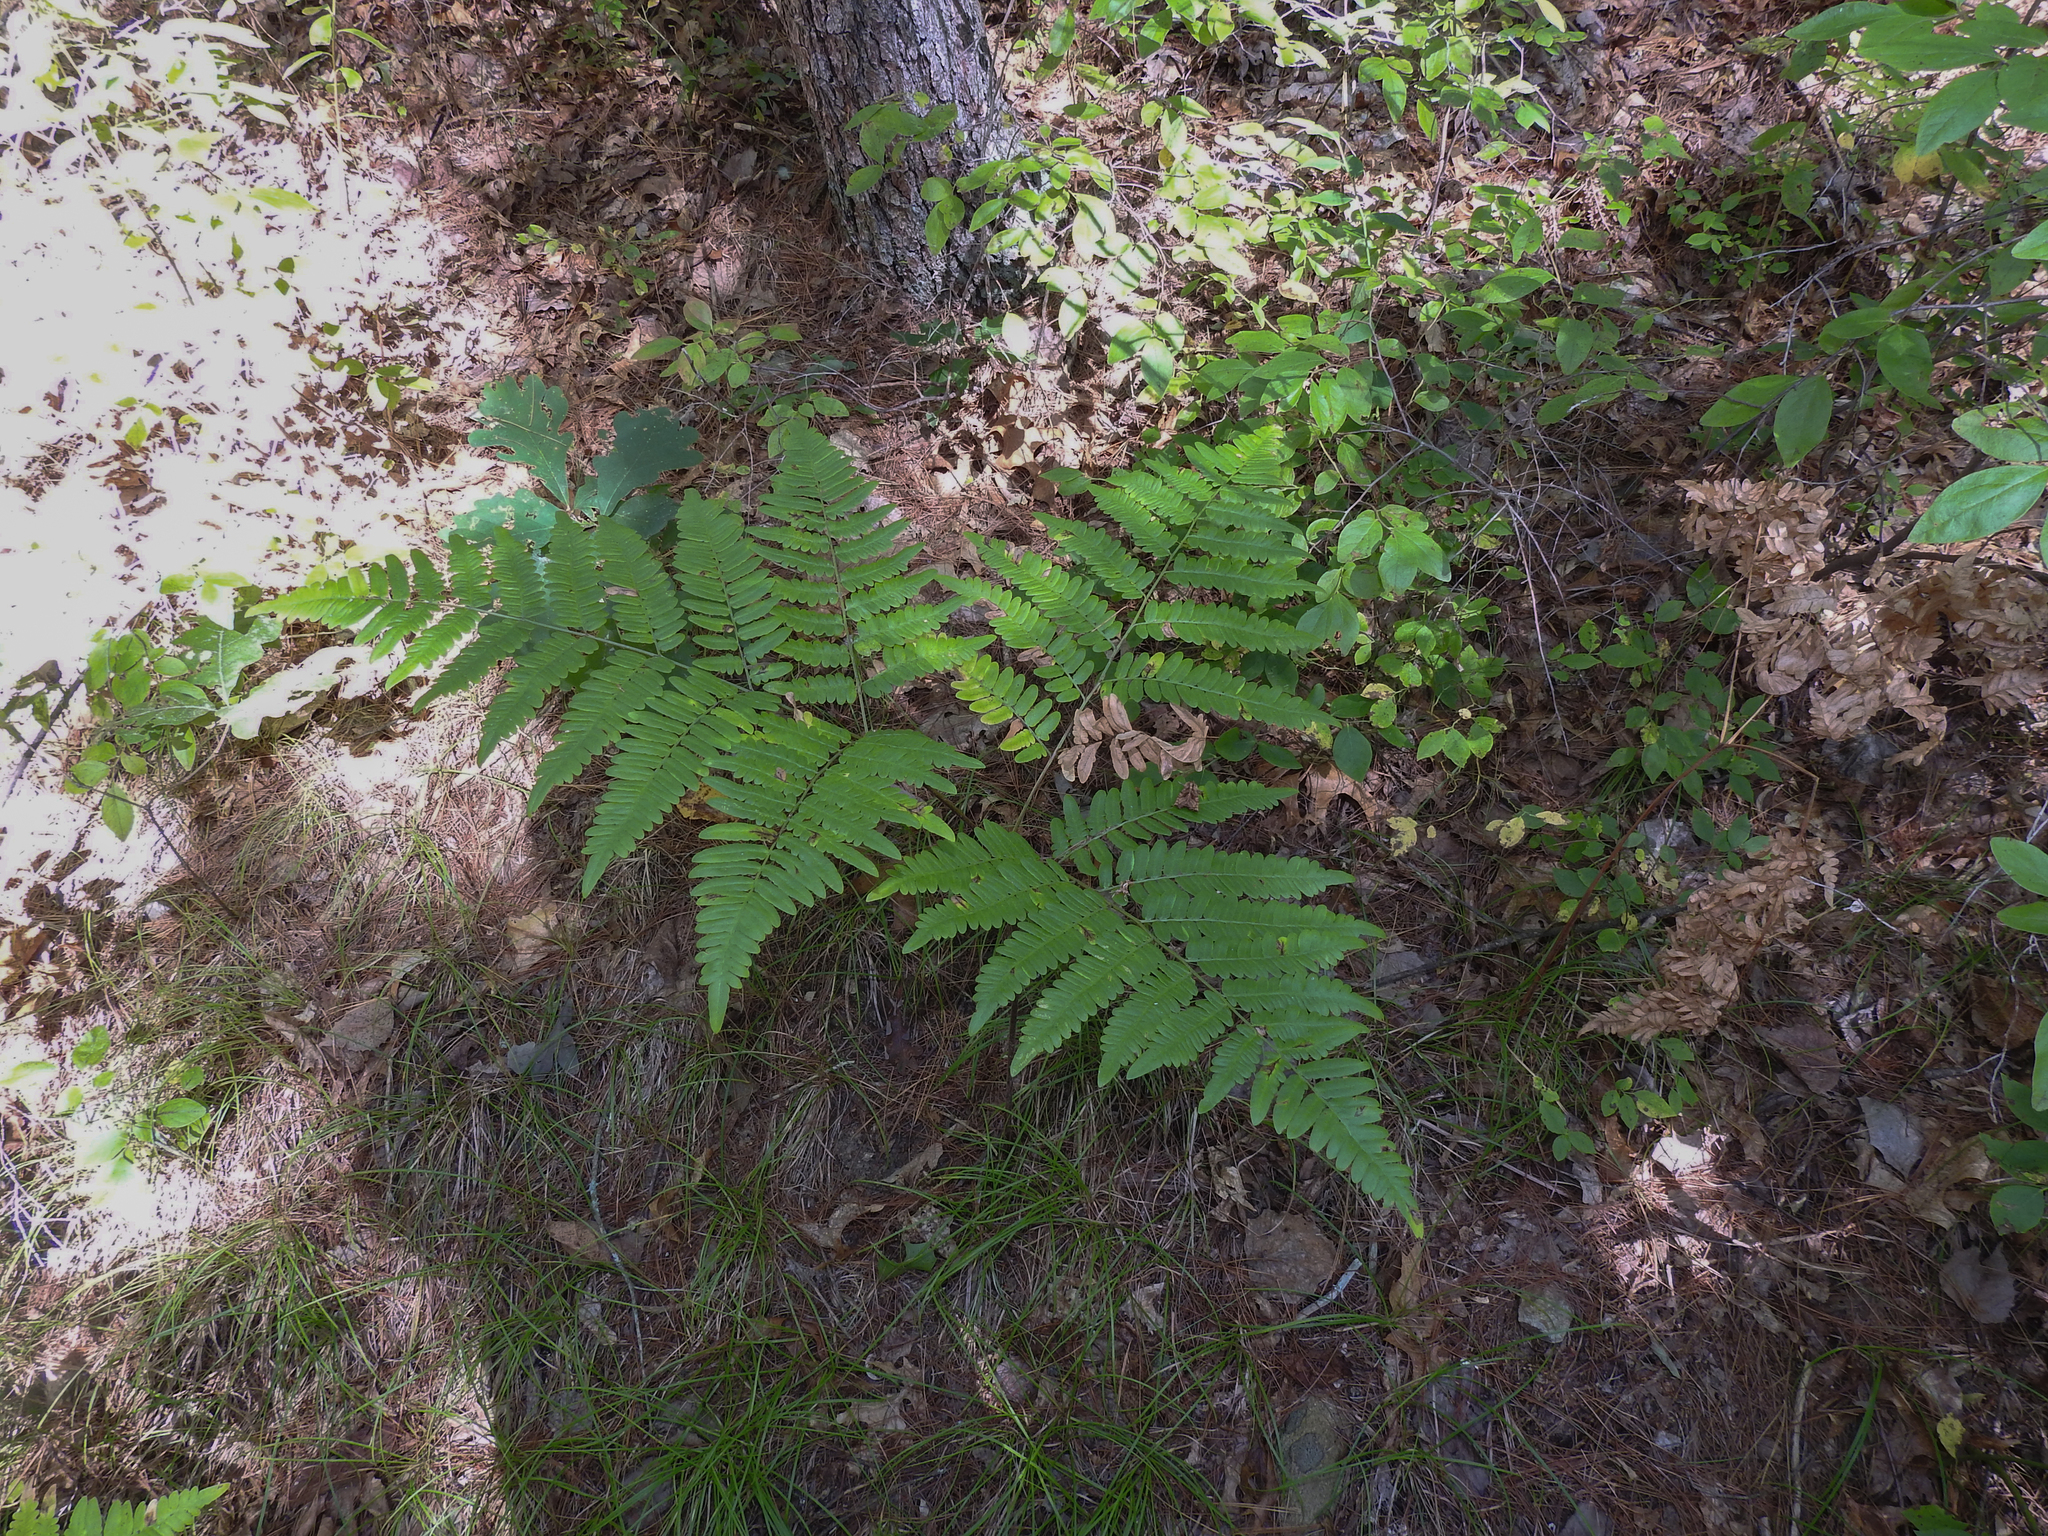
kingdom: Plantae
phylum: Tracheophyta
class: Polypodiopsida
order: Polypodiales
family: Dennstaedtiaceae
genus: Pteridium
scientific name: Pteridium aquilinum
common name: Bracken
